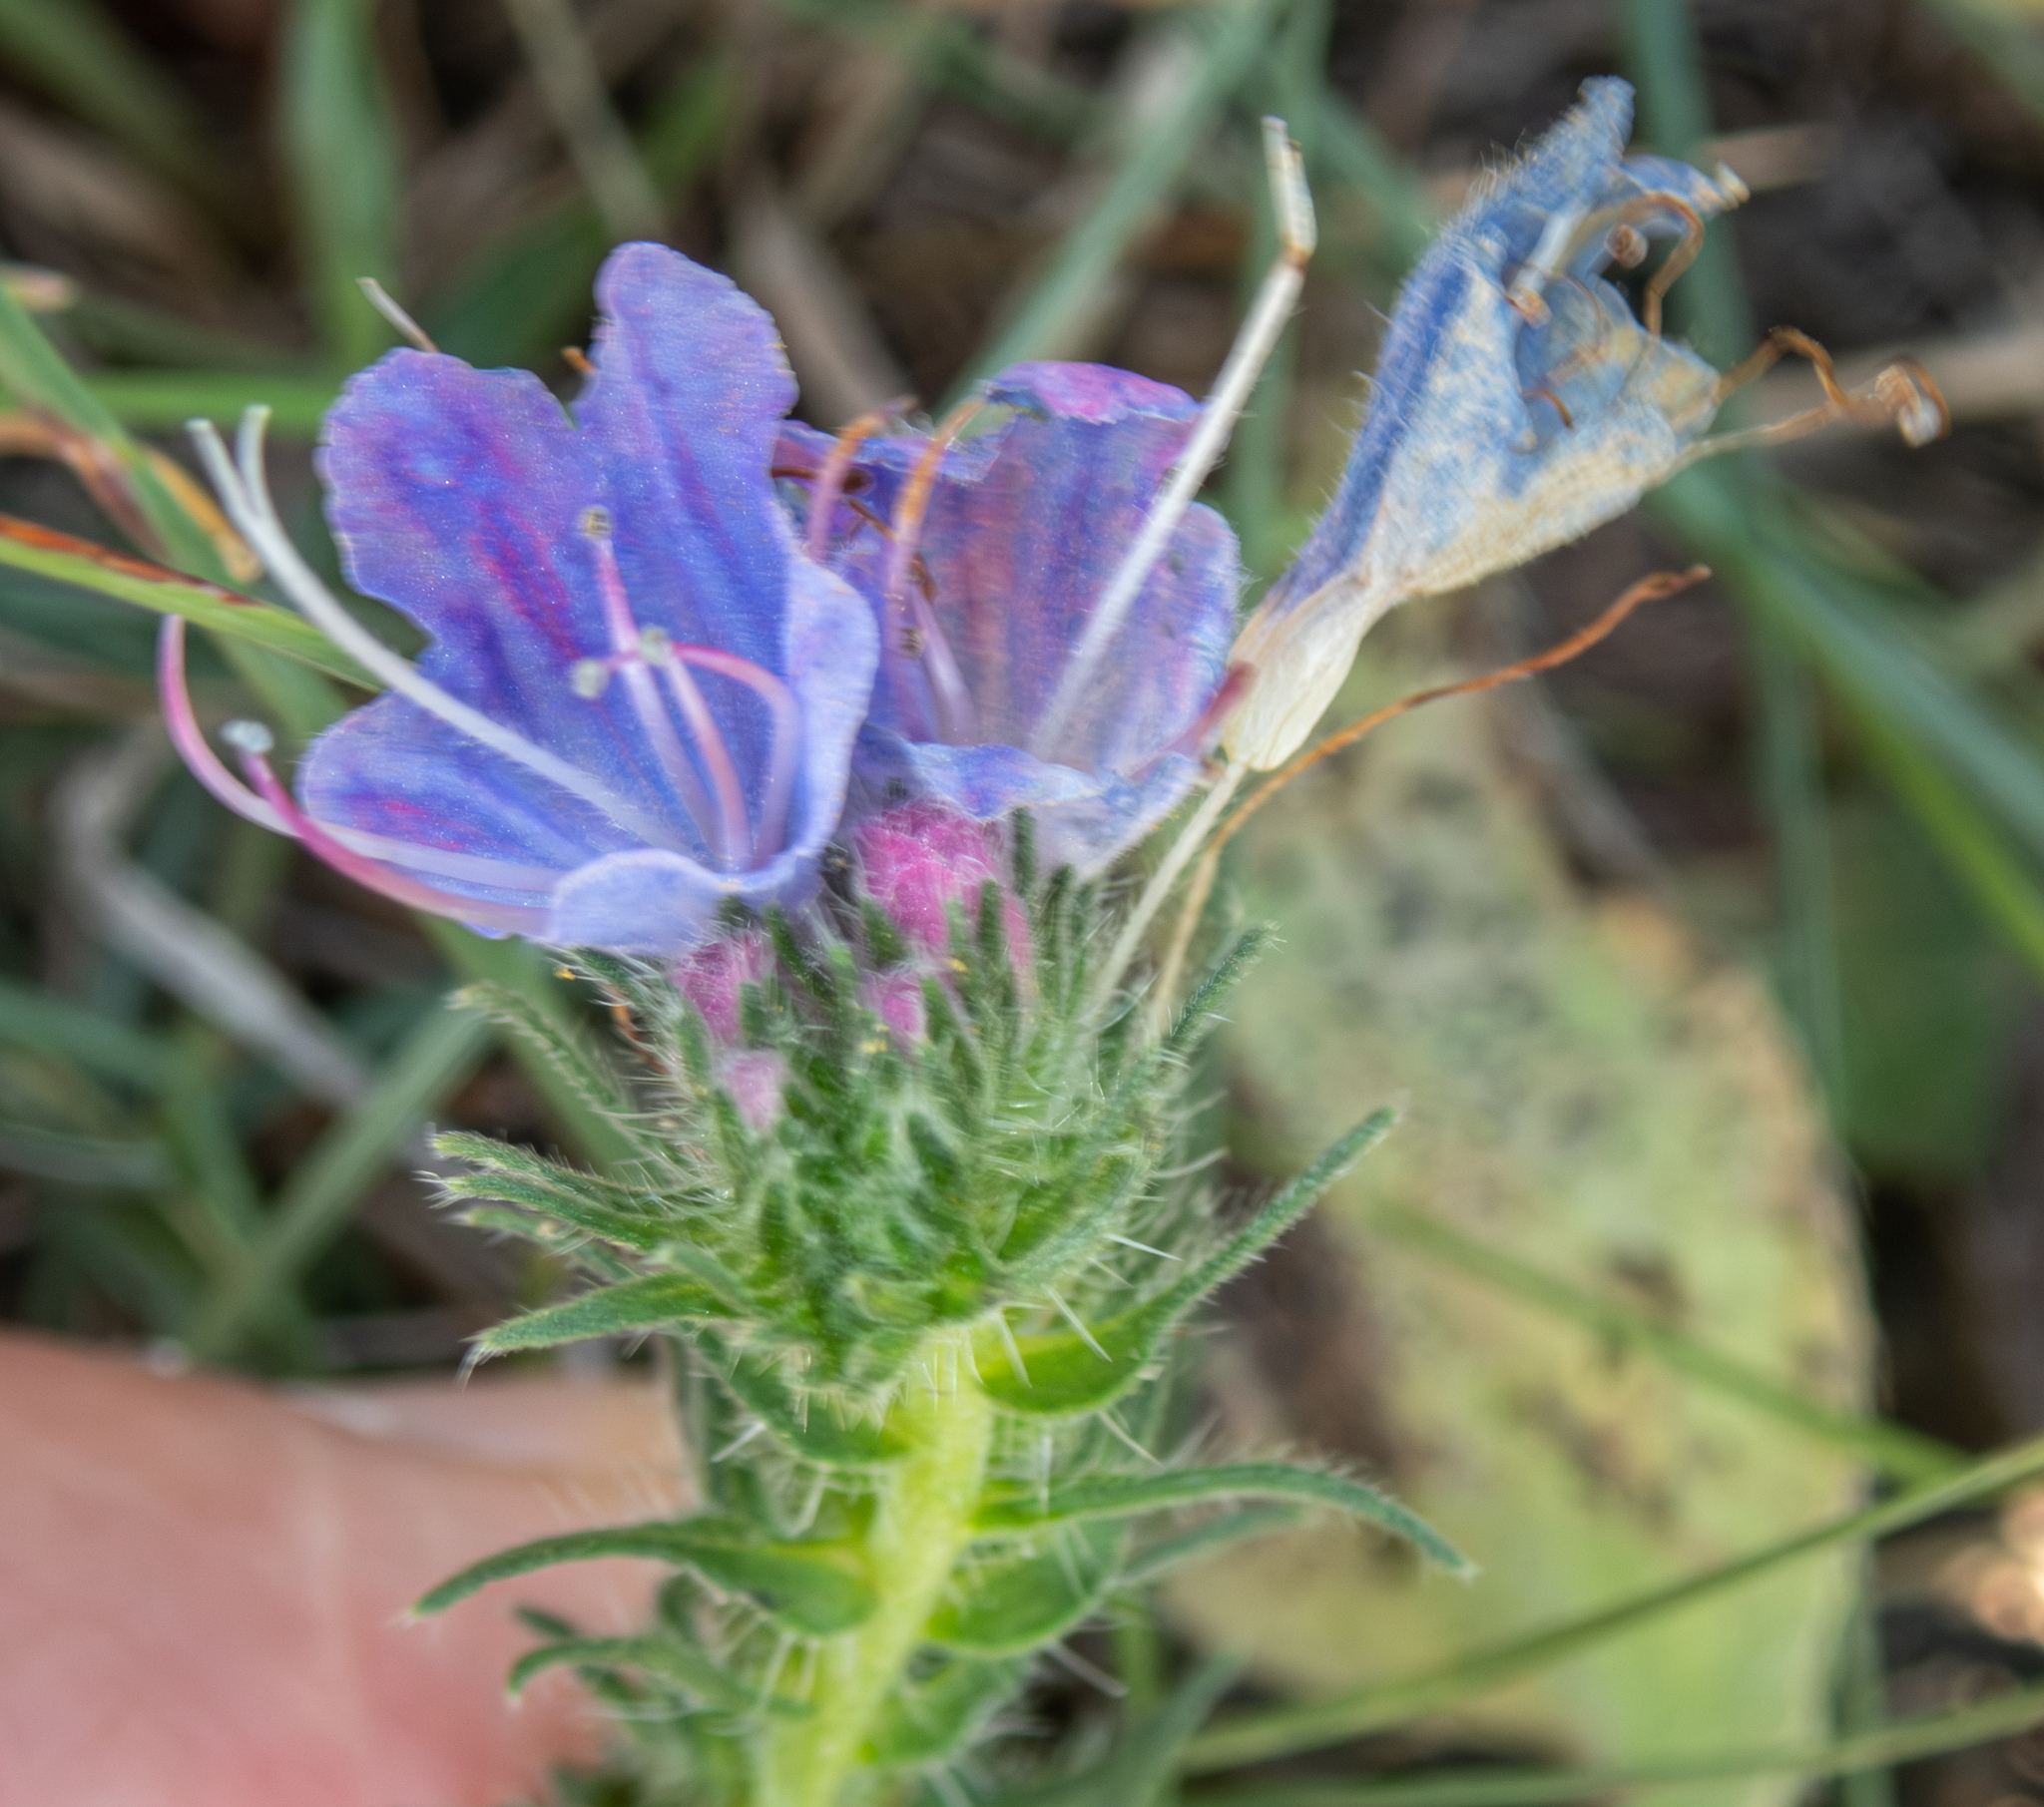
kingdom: Plantae
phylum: Tracheophyta
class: Magnoliopsida
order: Boraginales
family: Boraginaceae
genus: Echium
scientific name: Echium vulgare
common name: Common viper's bugloss
